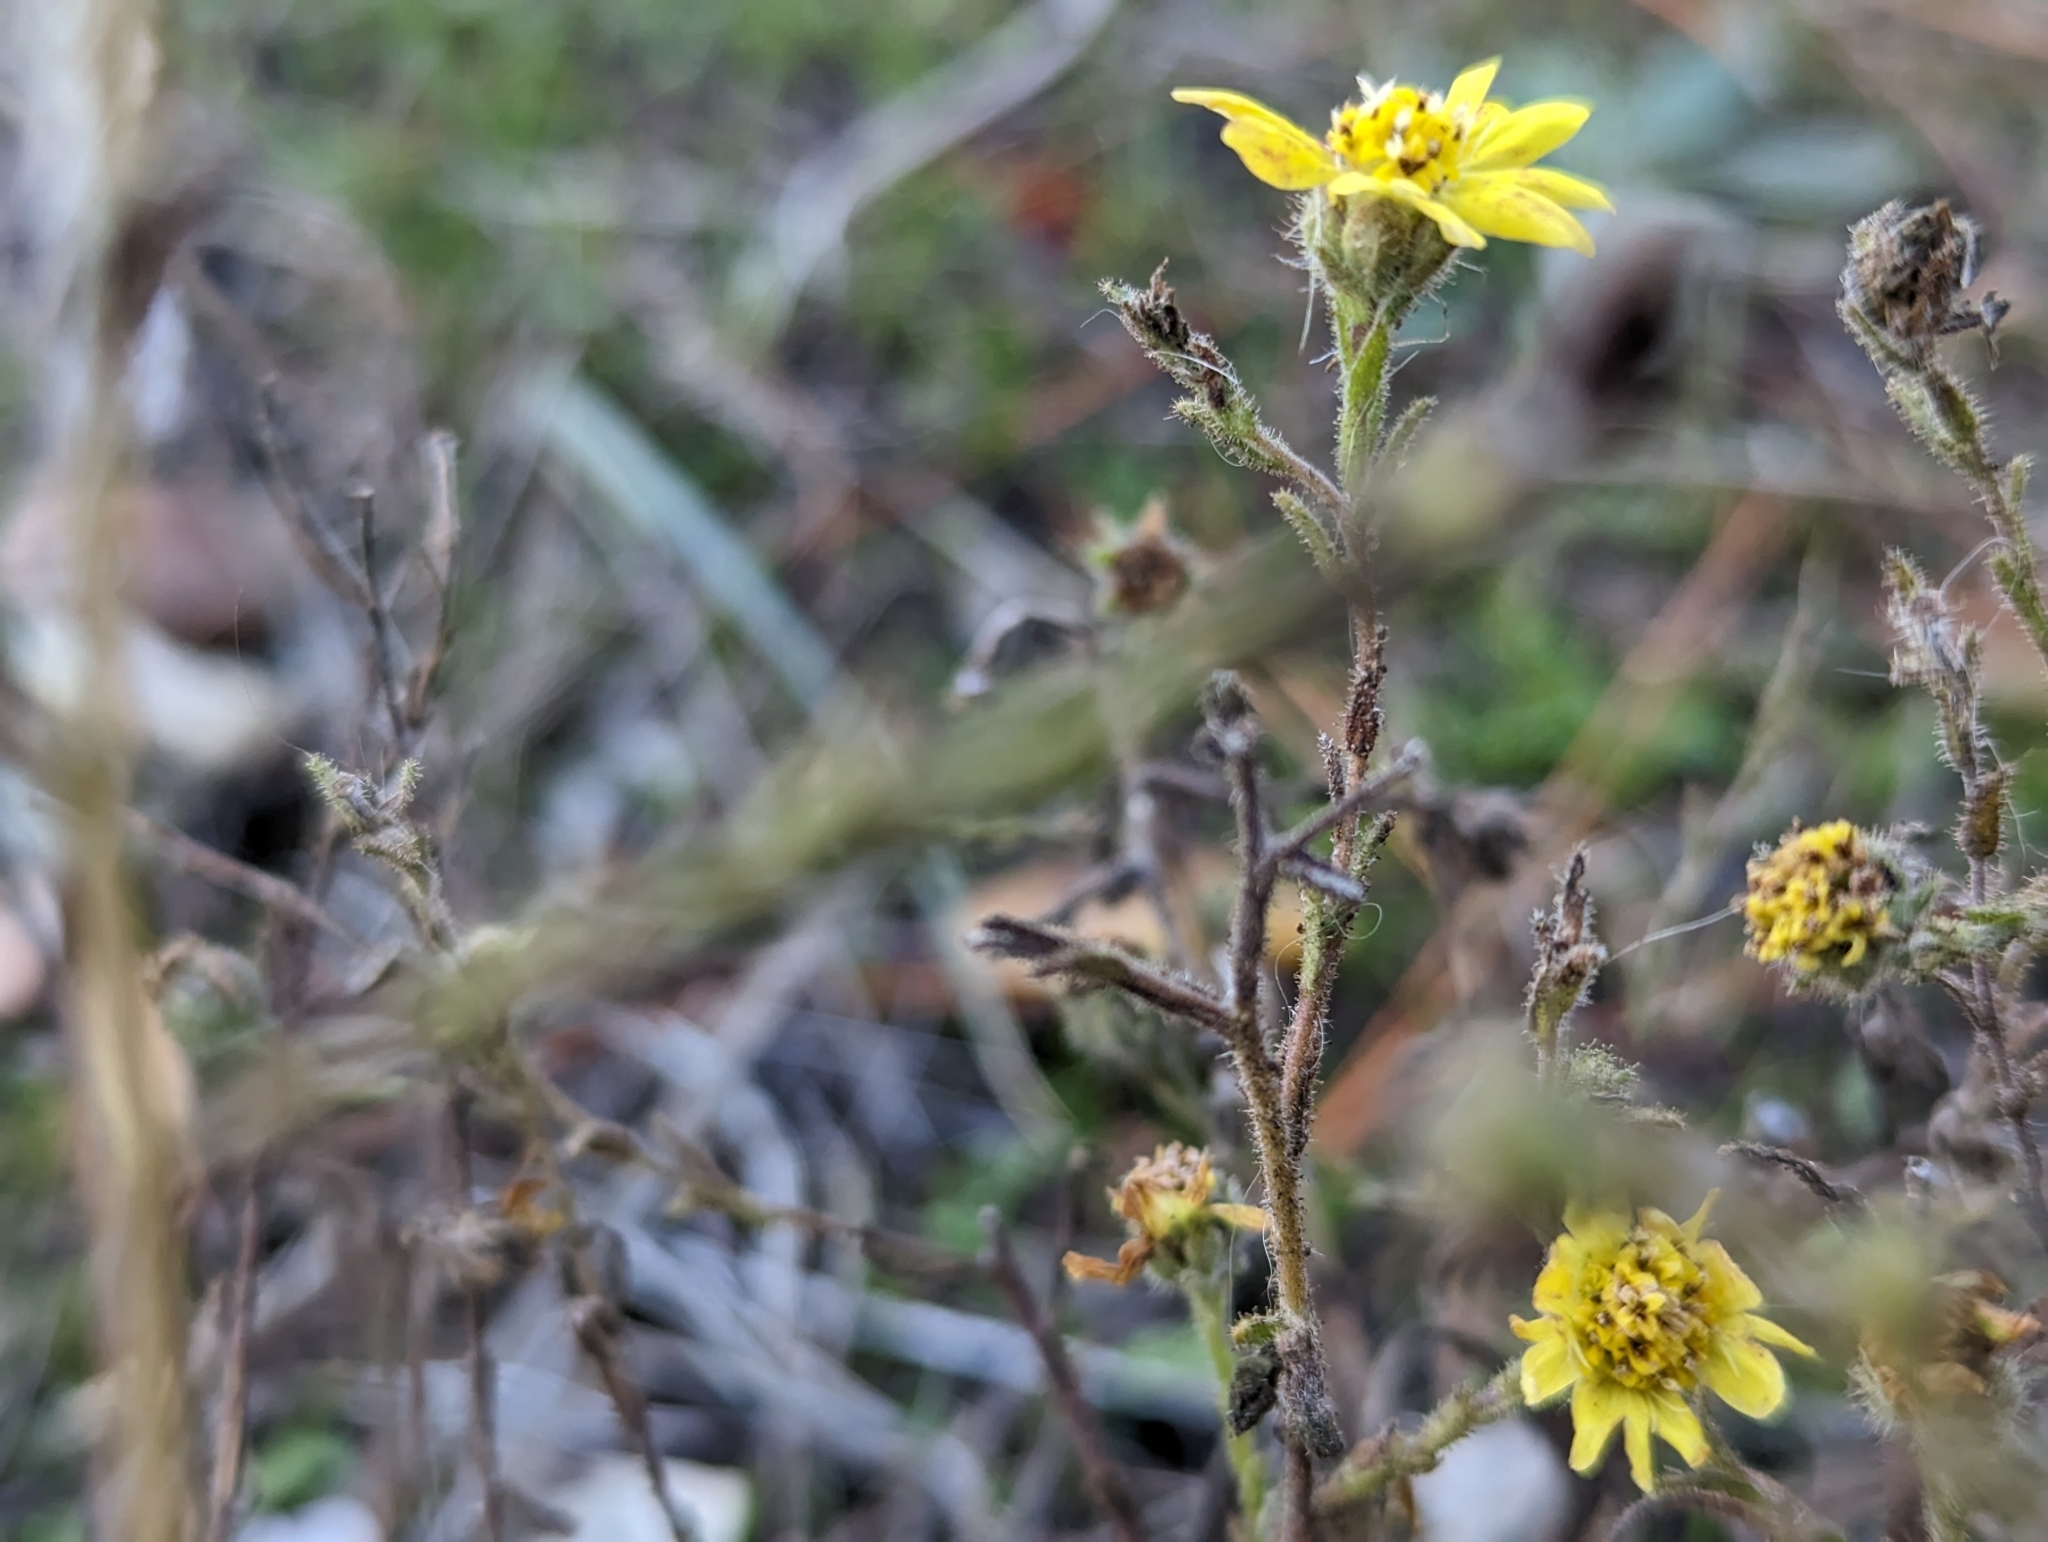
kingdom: Plantae
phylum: Tracheophyta
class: Magnoliopsida
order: Asterales
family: Asteraceae
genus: Hemizonia
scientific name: Hemizonia congesta
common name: Hayfield tarweed
